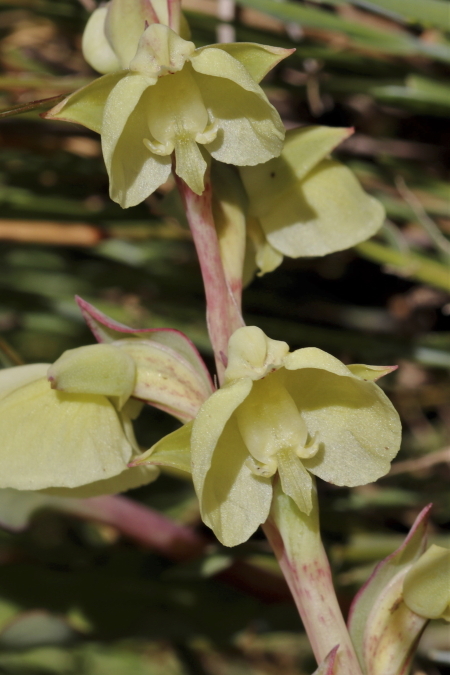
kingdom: Plantae
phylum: Tracheophyta
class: Liliopsida
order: Asparagales
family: Orchidaceae
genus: Pterygodium
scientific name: Pterygodium catholicum
